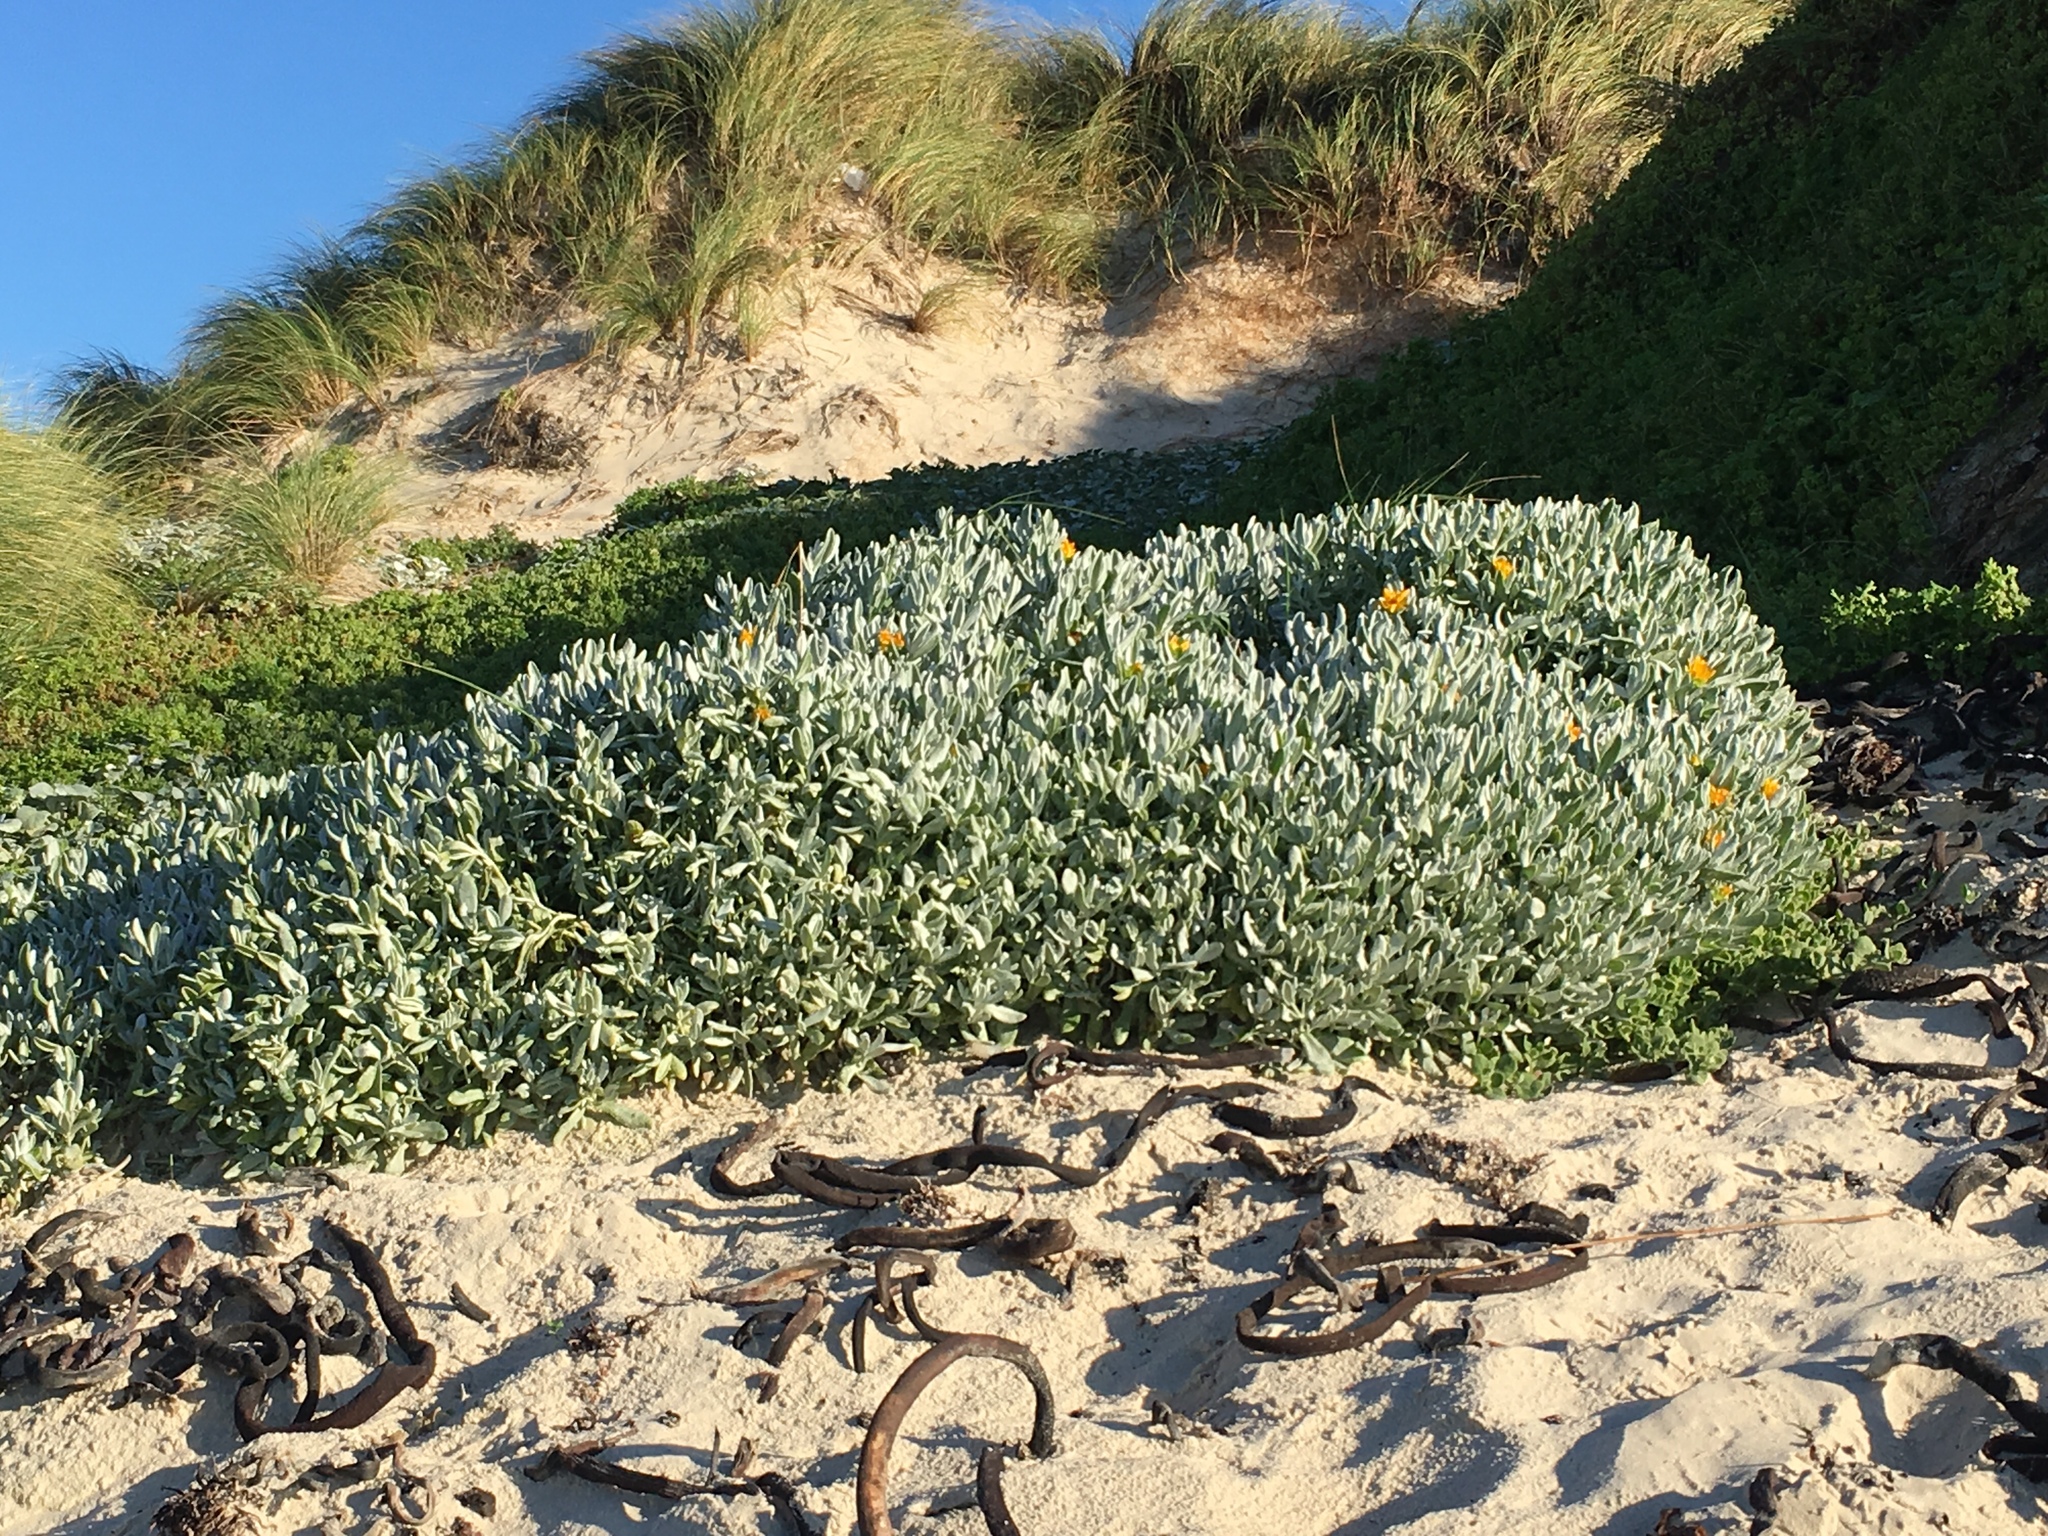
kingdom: Plantae
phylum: Tracheophyta
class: Magnoliopsida
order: Asterales
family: Asteraceae
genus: Didelta
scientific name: Didelta carnosa
